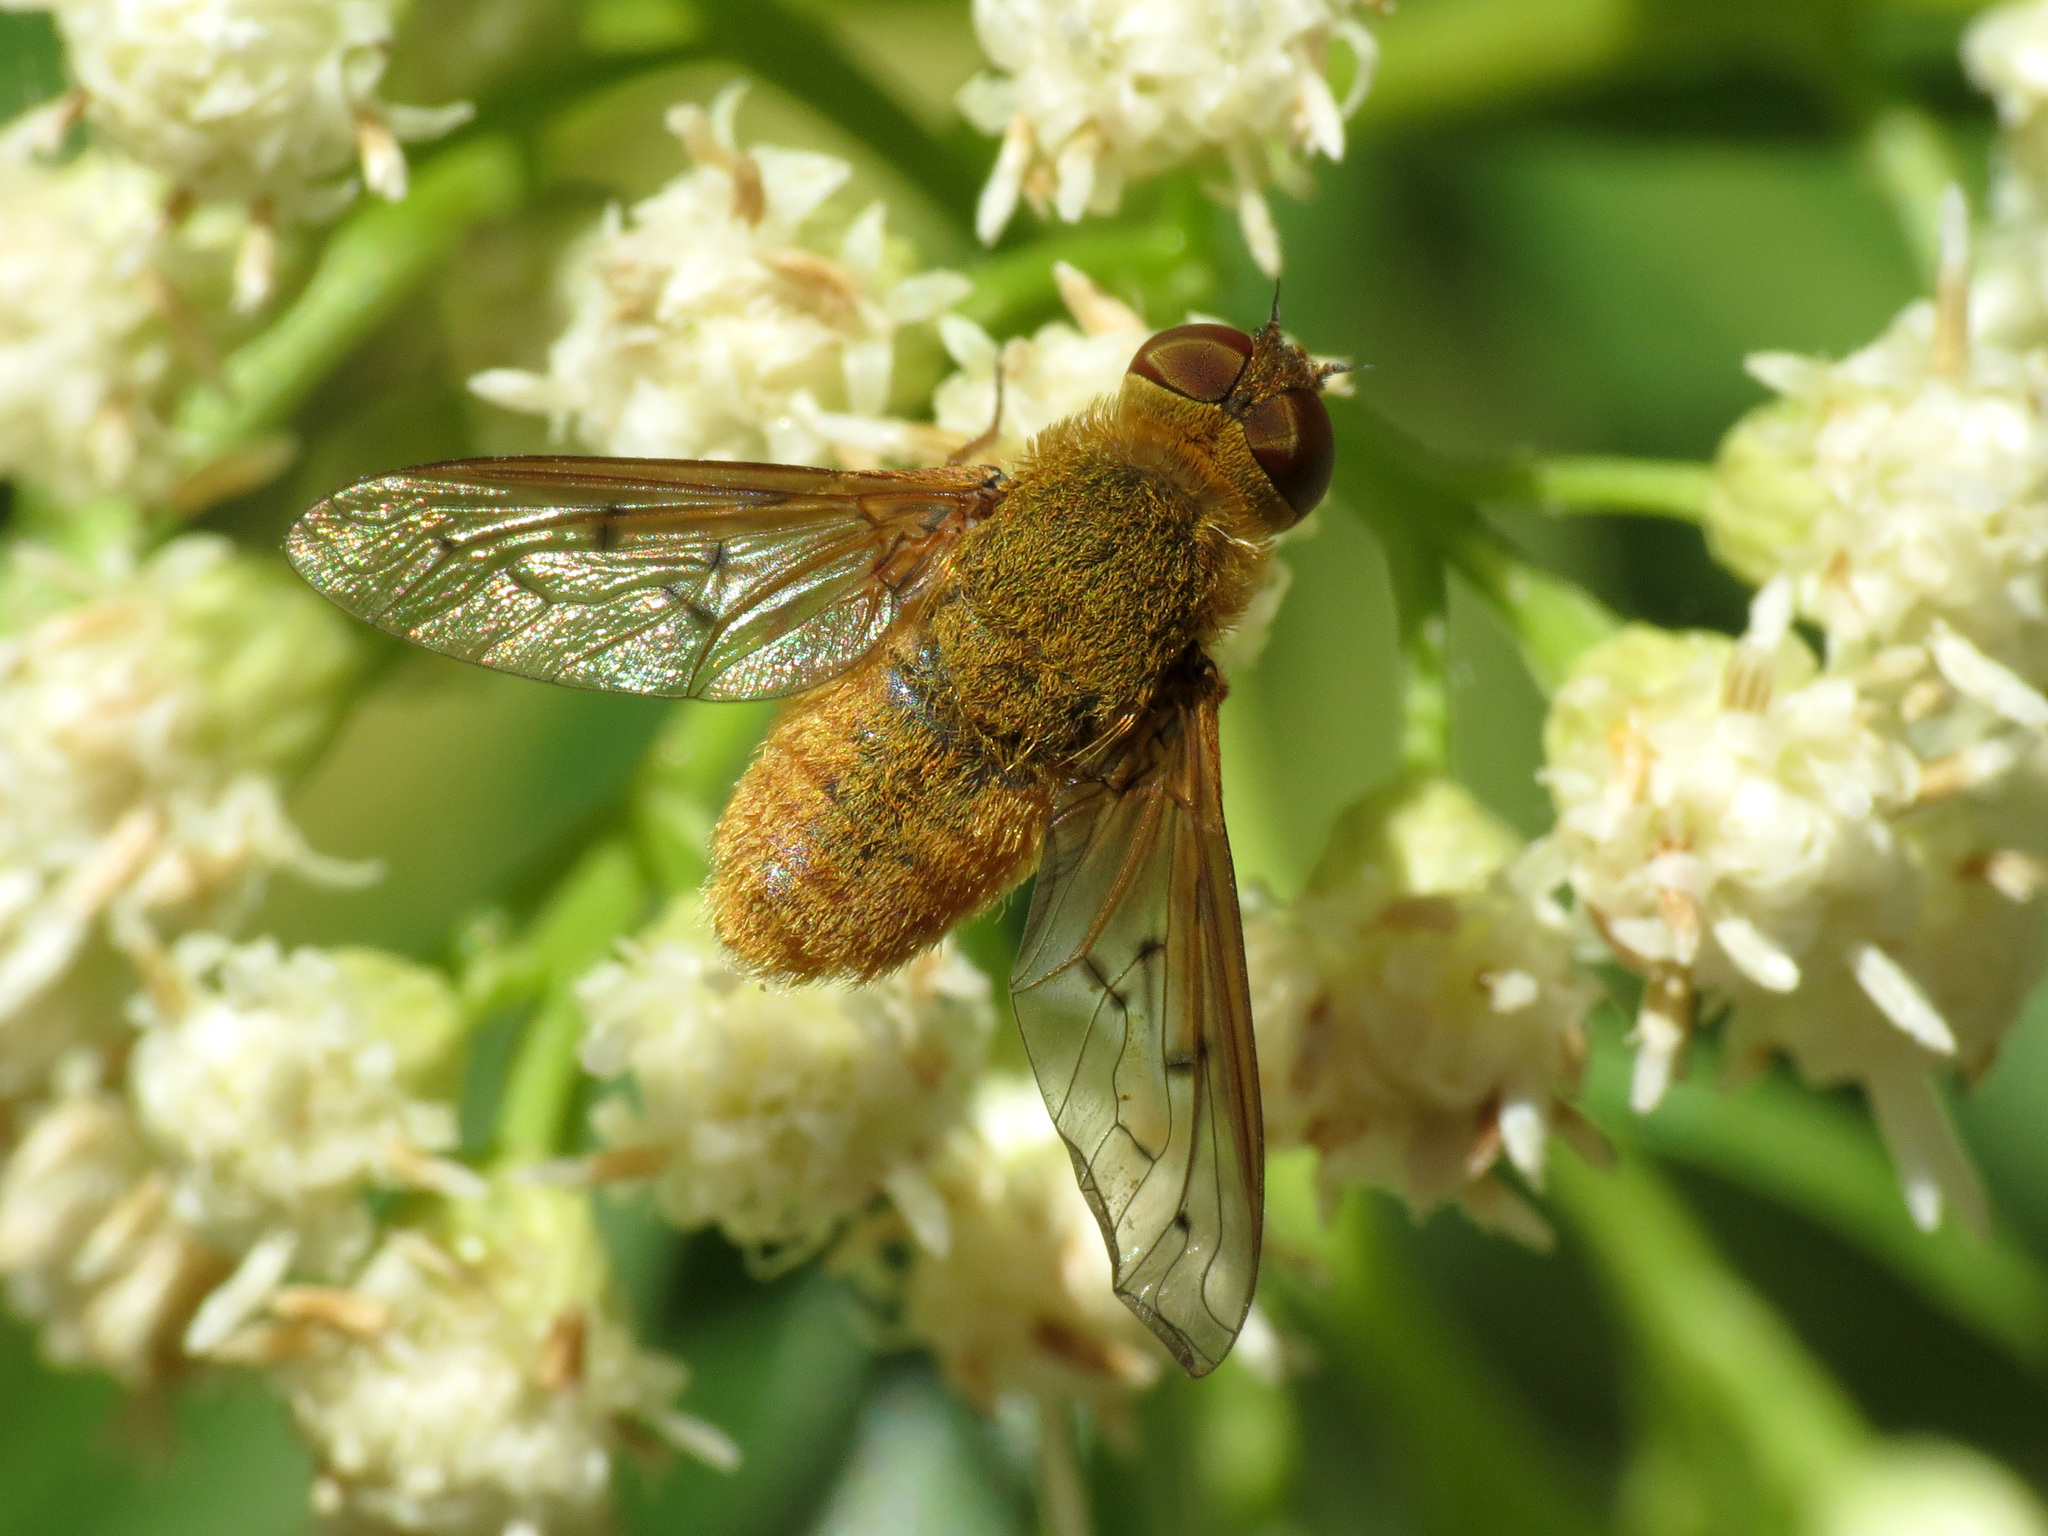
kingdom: Animalia
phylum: Arthropoda
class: Insecta
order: Diptera
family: Bombyliidae
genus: Chrysanthrax
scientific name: Chrysanthrax edititius
